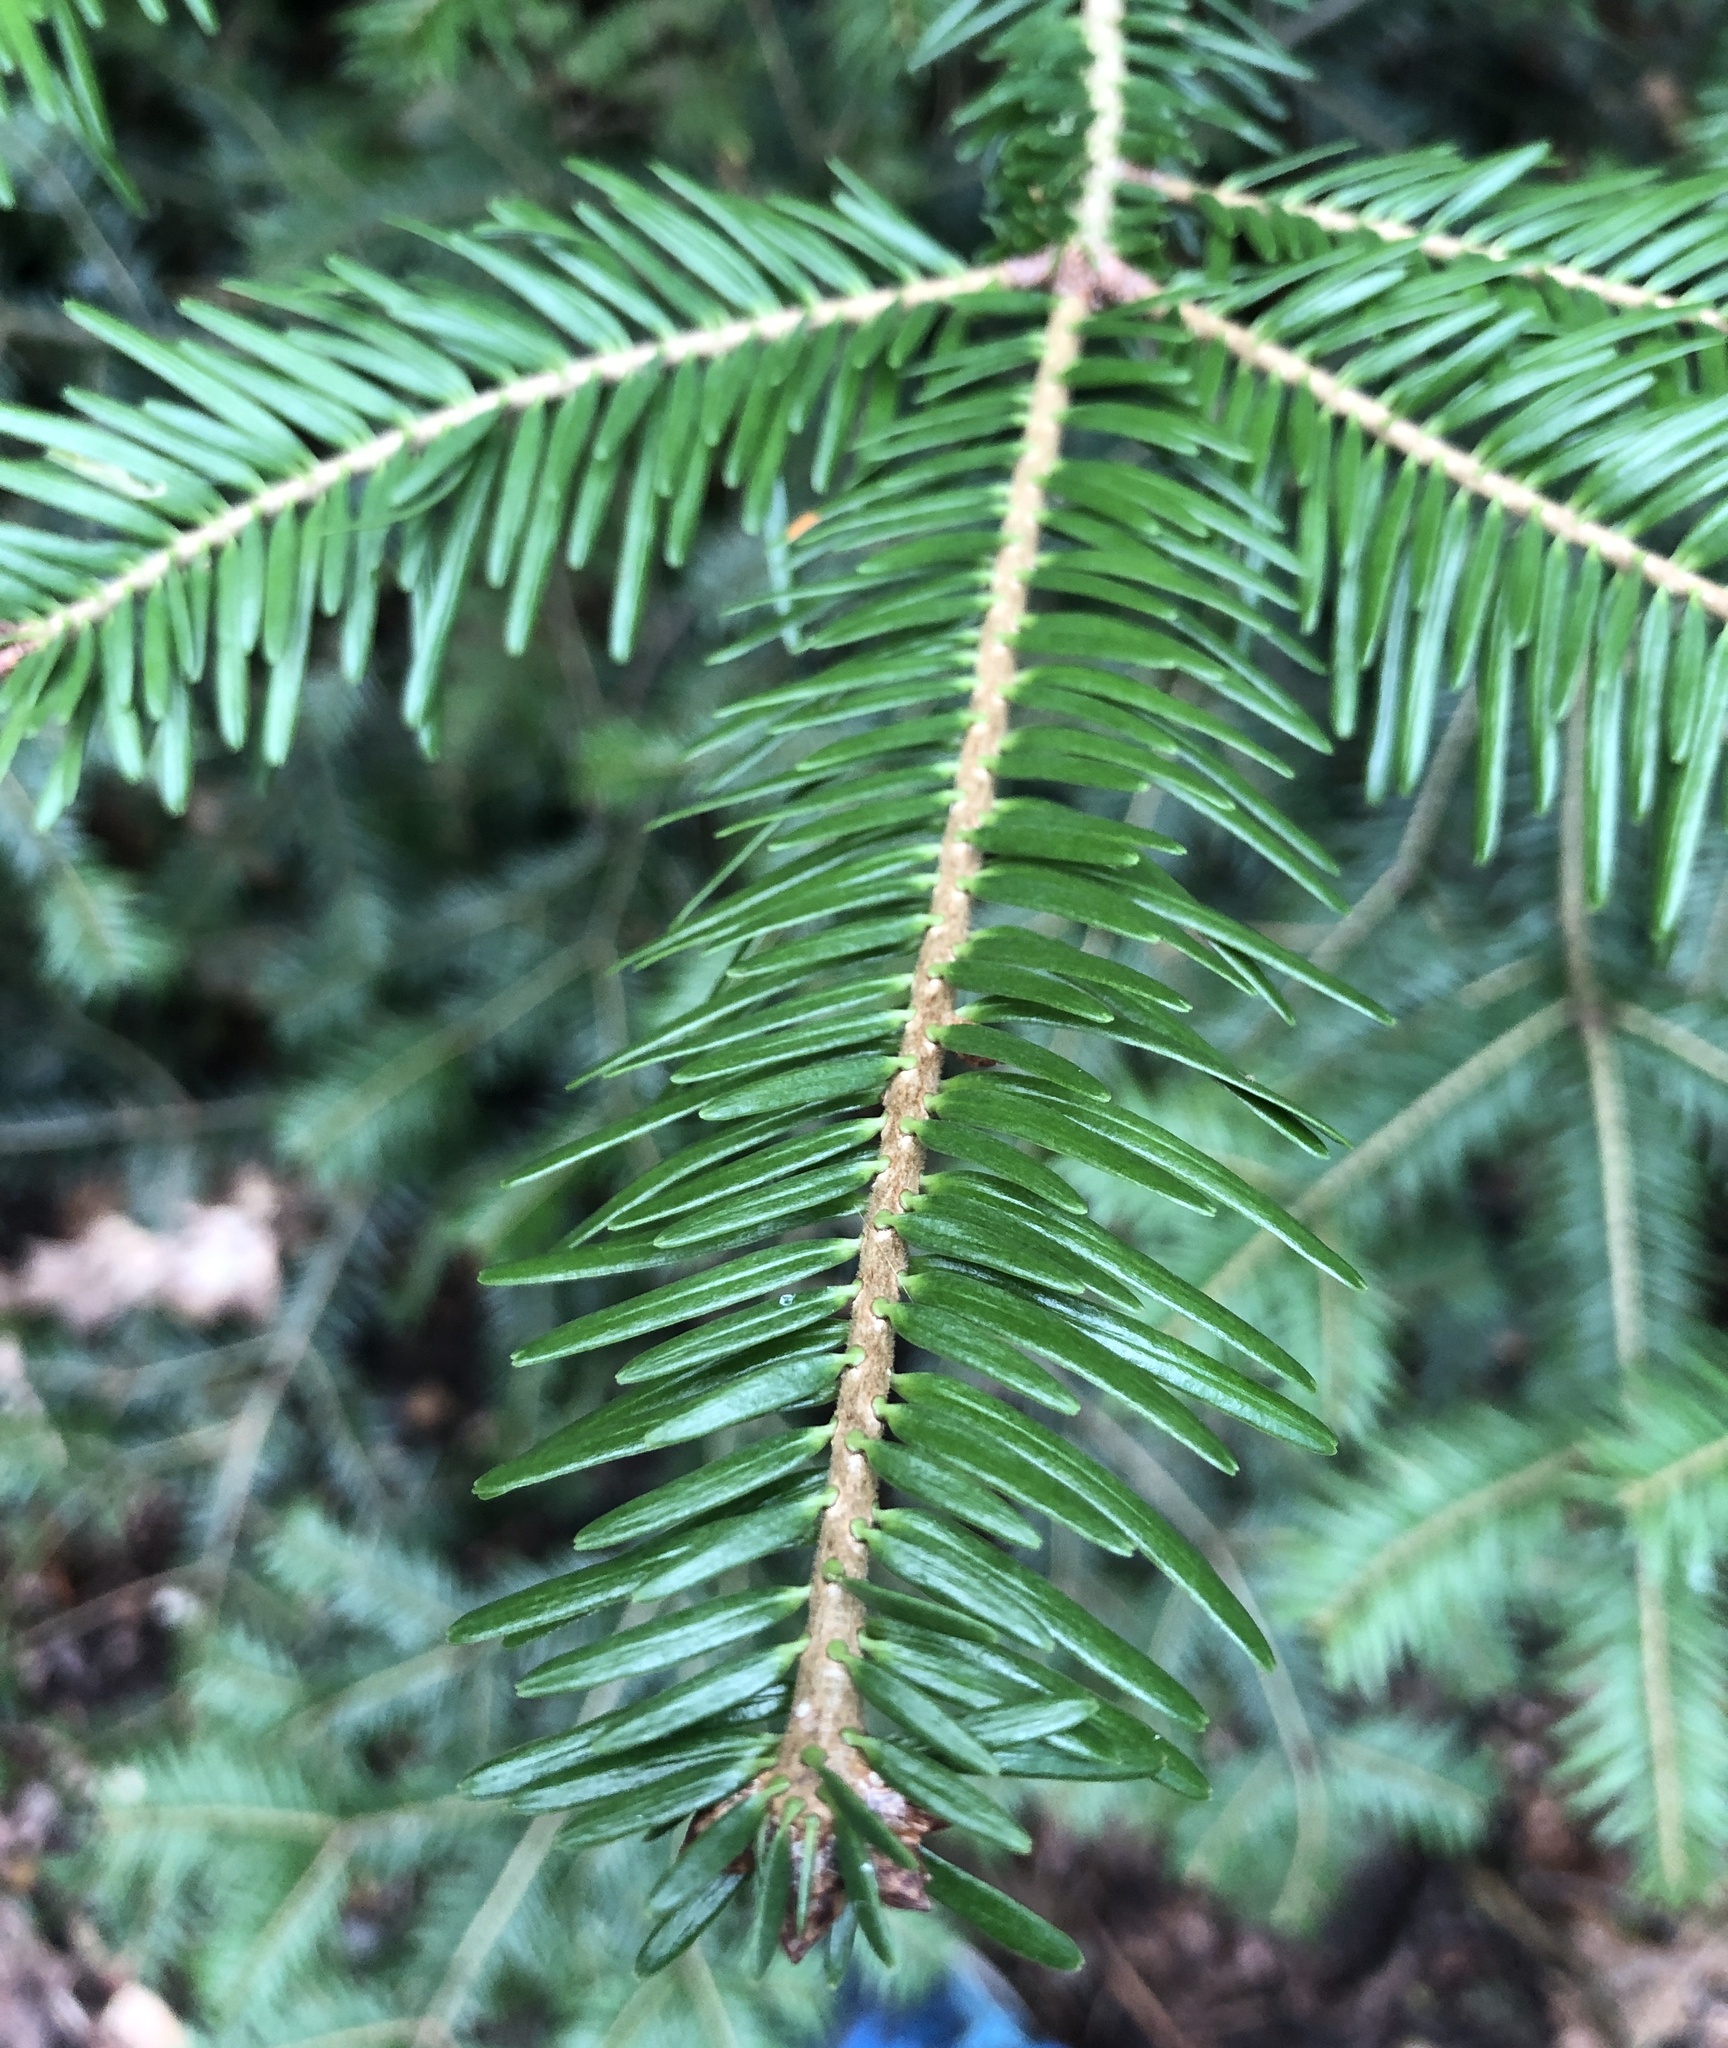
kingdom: Plantae
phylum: Tracheophyta
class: Pinopsida
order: Pinales
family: Pinaceae
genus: Abies
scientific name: Abies alba
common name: Silver fir
